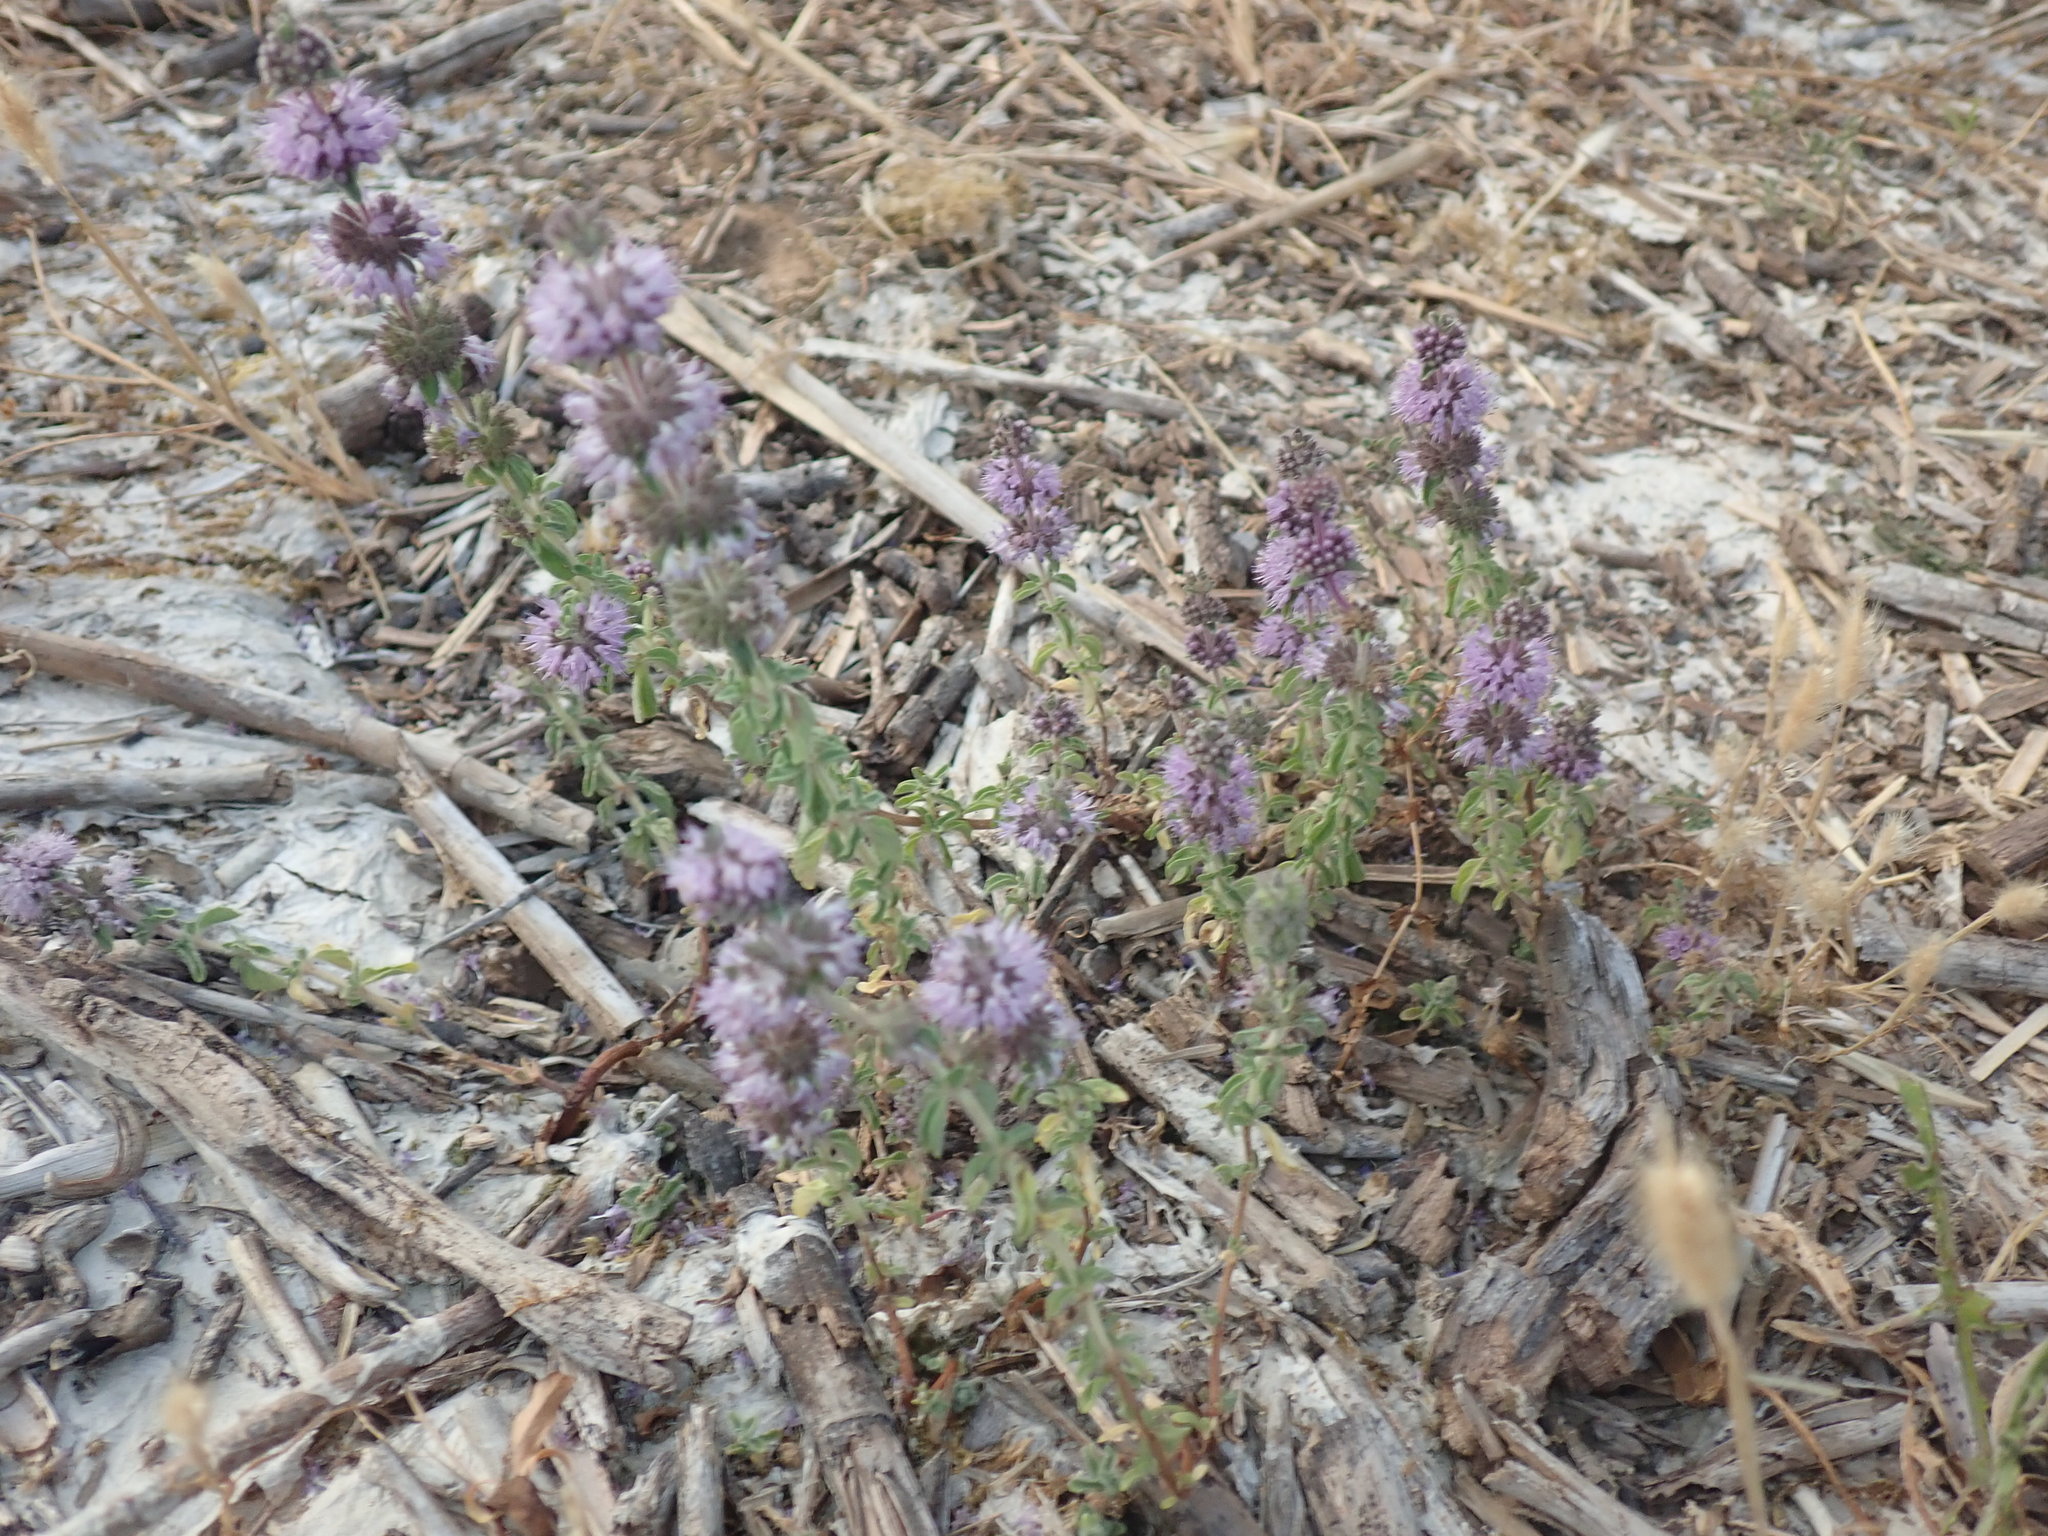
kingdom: Plantae
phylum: Tracheophyta
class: Magnoliopsida
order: Lamiales
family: Lamiaceae
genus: Mentha
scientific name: Mentha pulegium
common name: Pennyroyal
